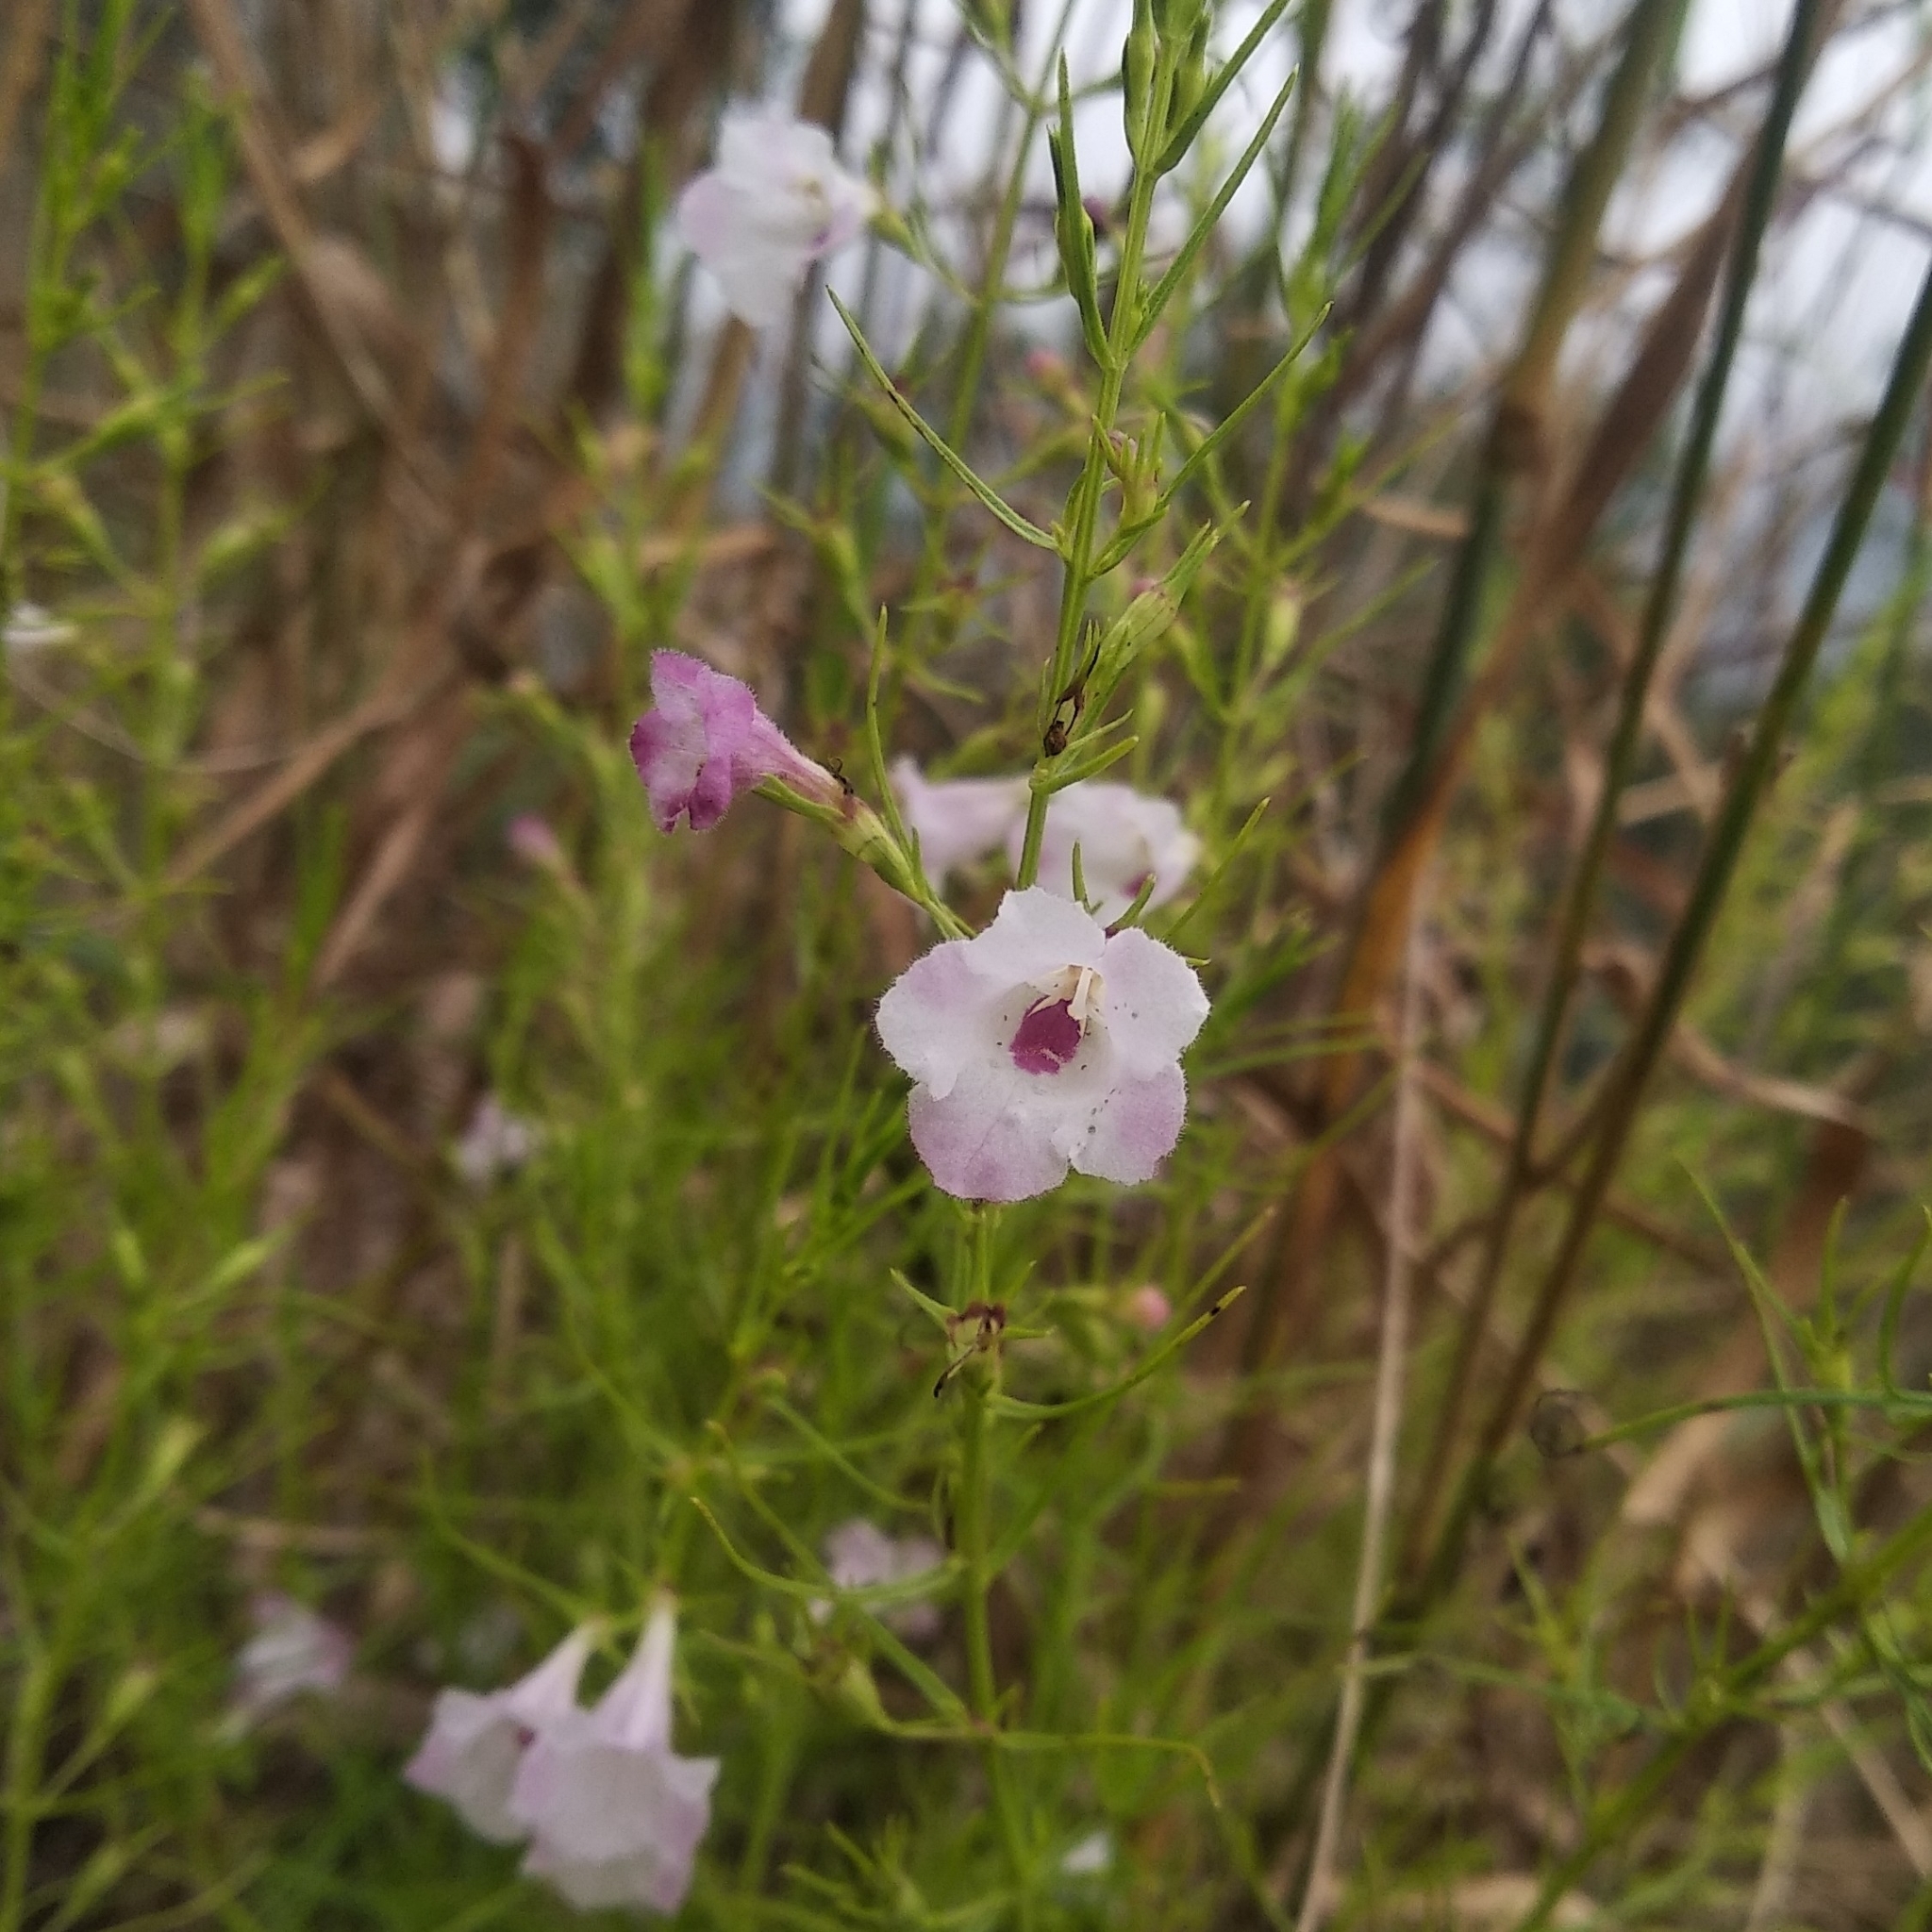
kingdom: Plantae
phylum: Tracheophyta
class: Magnoliopsida
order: Lamiales
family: Orobanchaceae
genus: Parasopubia
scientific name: Parasopubia delphiniifolia
